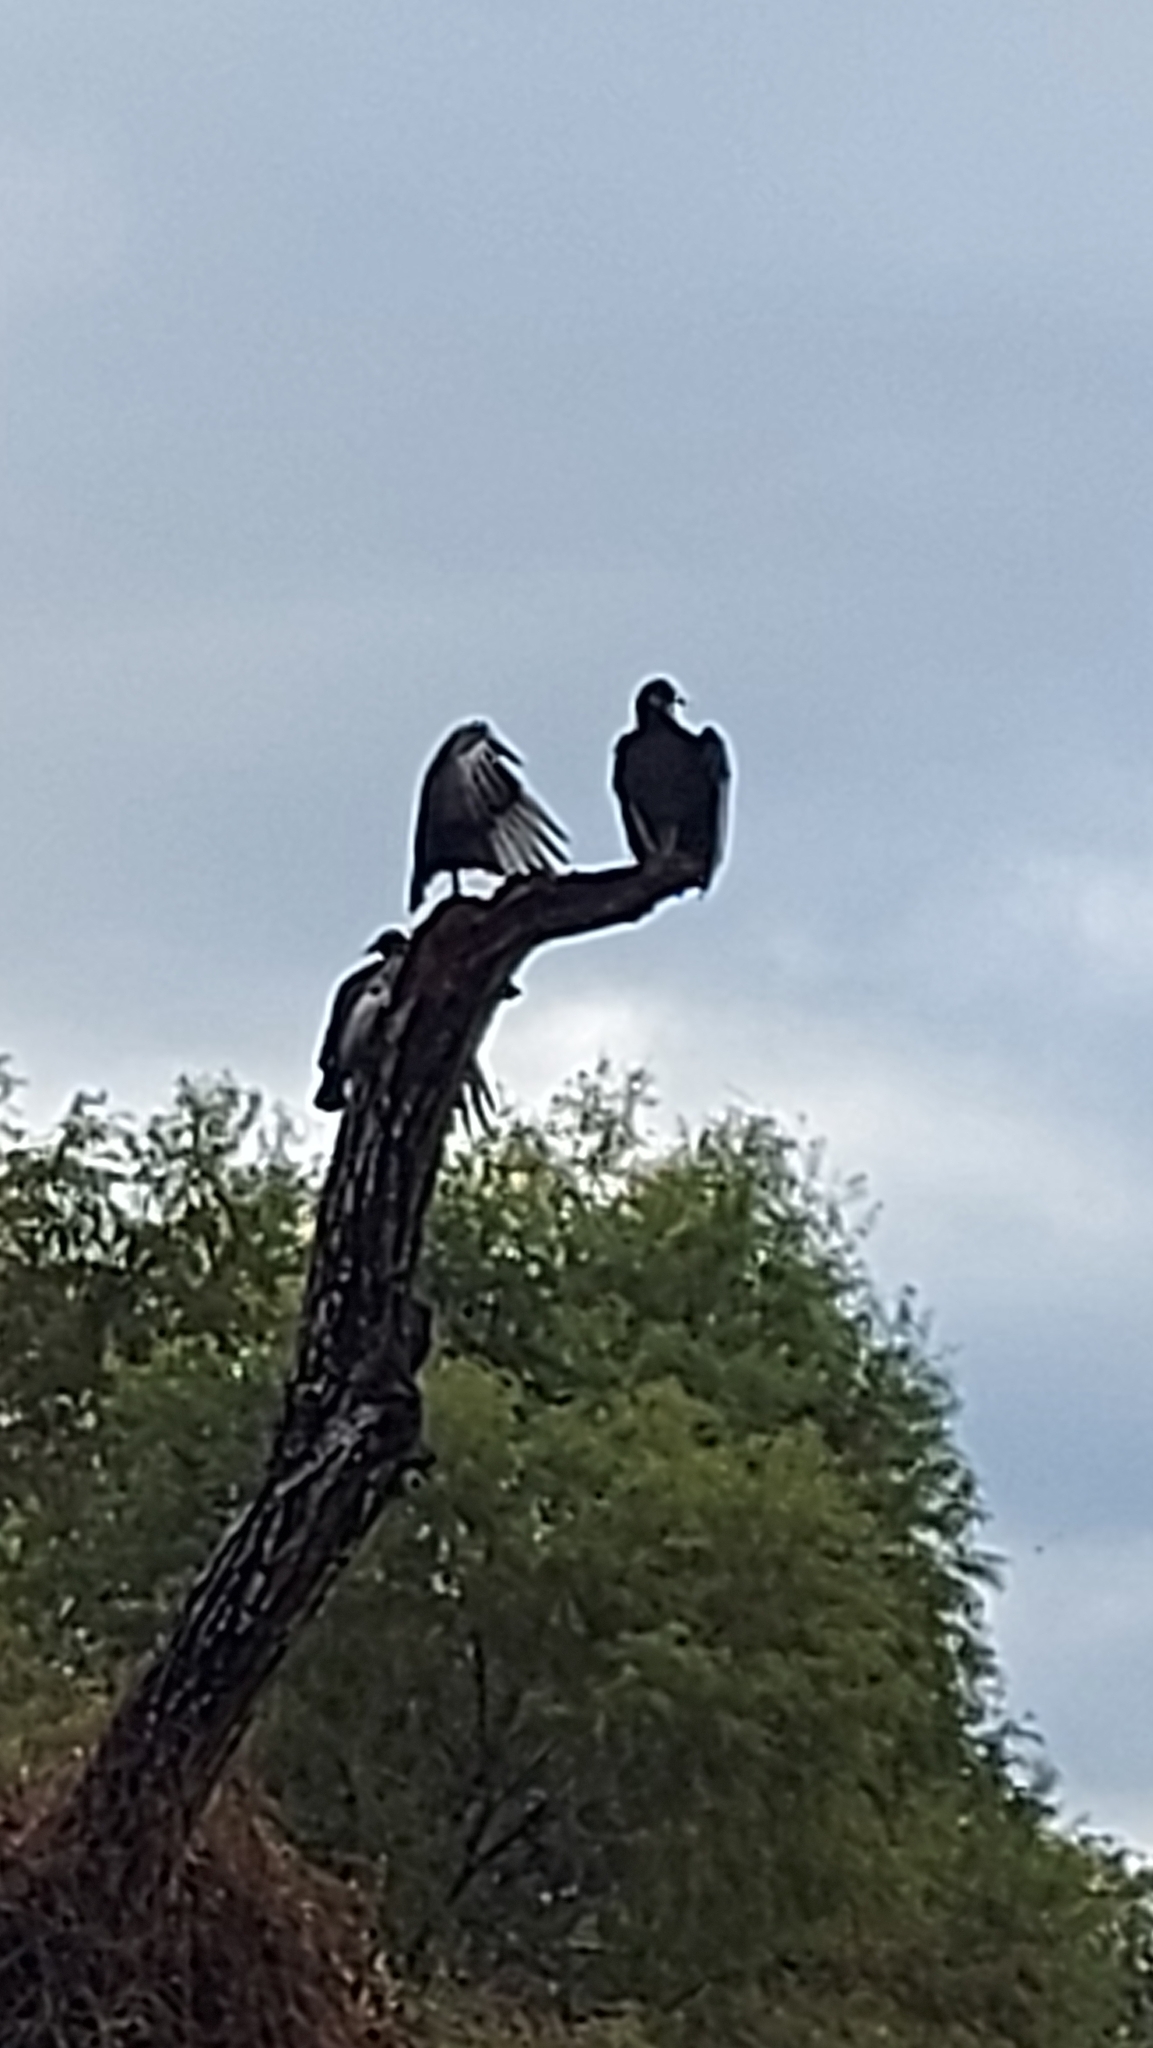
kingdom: Animalia
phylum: Chordata
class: Aves
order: Accipitriformes
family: Cathartidae
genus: Coragyps
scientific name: Coragyps atratus
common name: Black vulture
